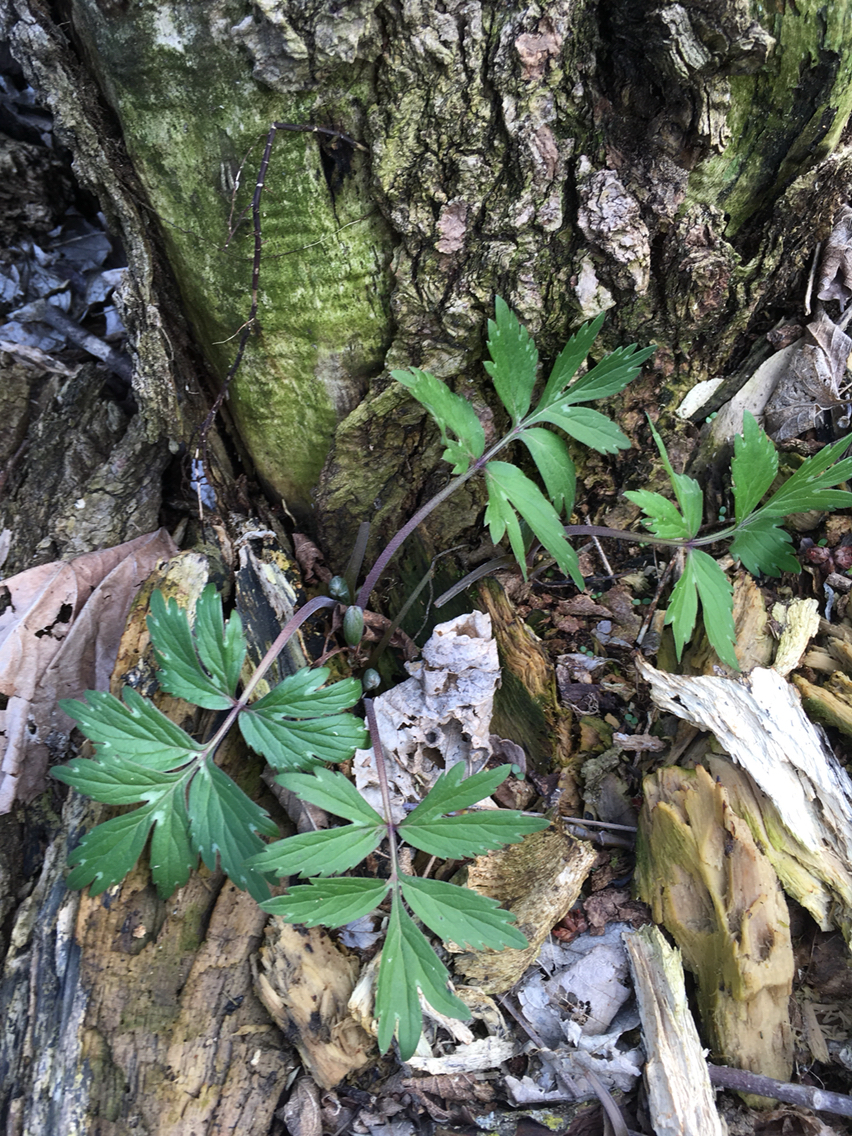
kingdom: Plantae
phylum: Tracheophyta
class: Magnoliopsida
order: Boraginales
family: Hydrophyllaceae
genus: Hydrophyllum
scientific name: Hydrophyllum virginianum
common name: Virginia waterleaf
